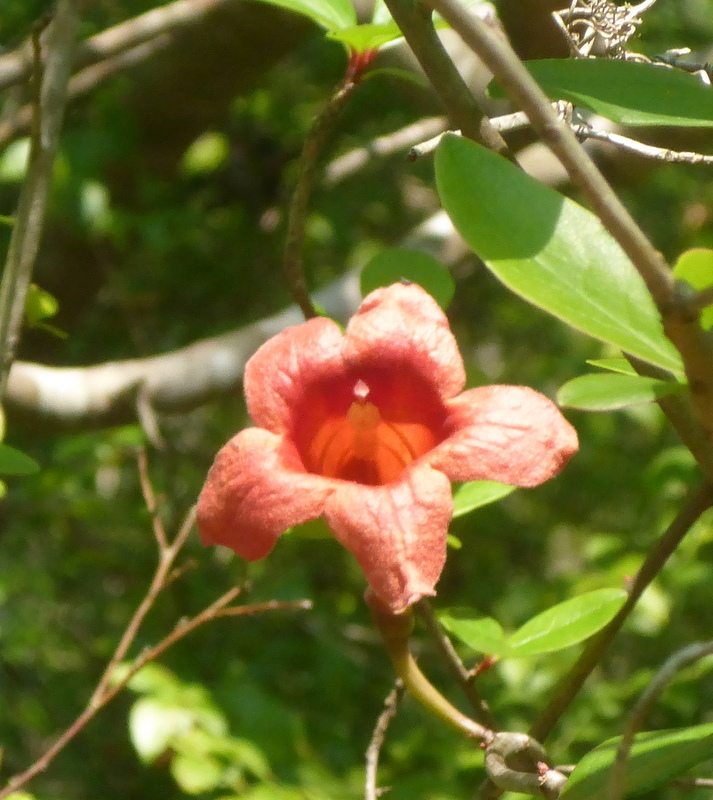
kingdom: Plantae
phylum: Tracheophyta
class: Magnoliopsida
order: Lamiales
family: Bignoniaceae
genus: Bignonia
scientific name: Bignonia capreolata
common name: Crossvine
